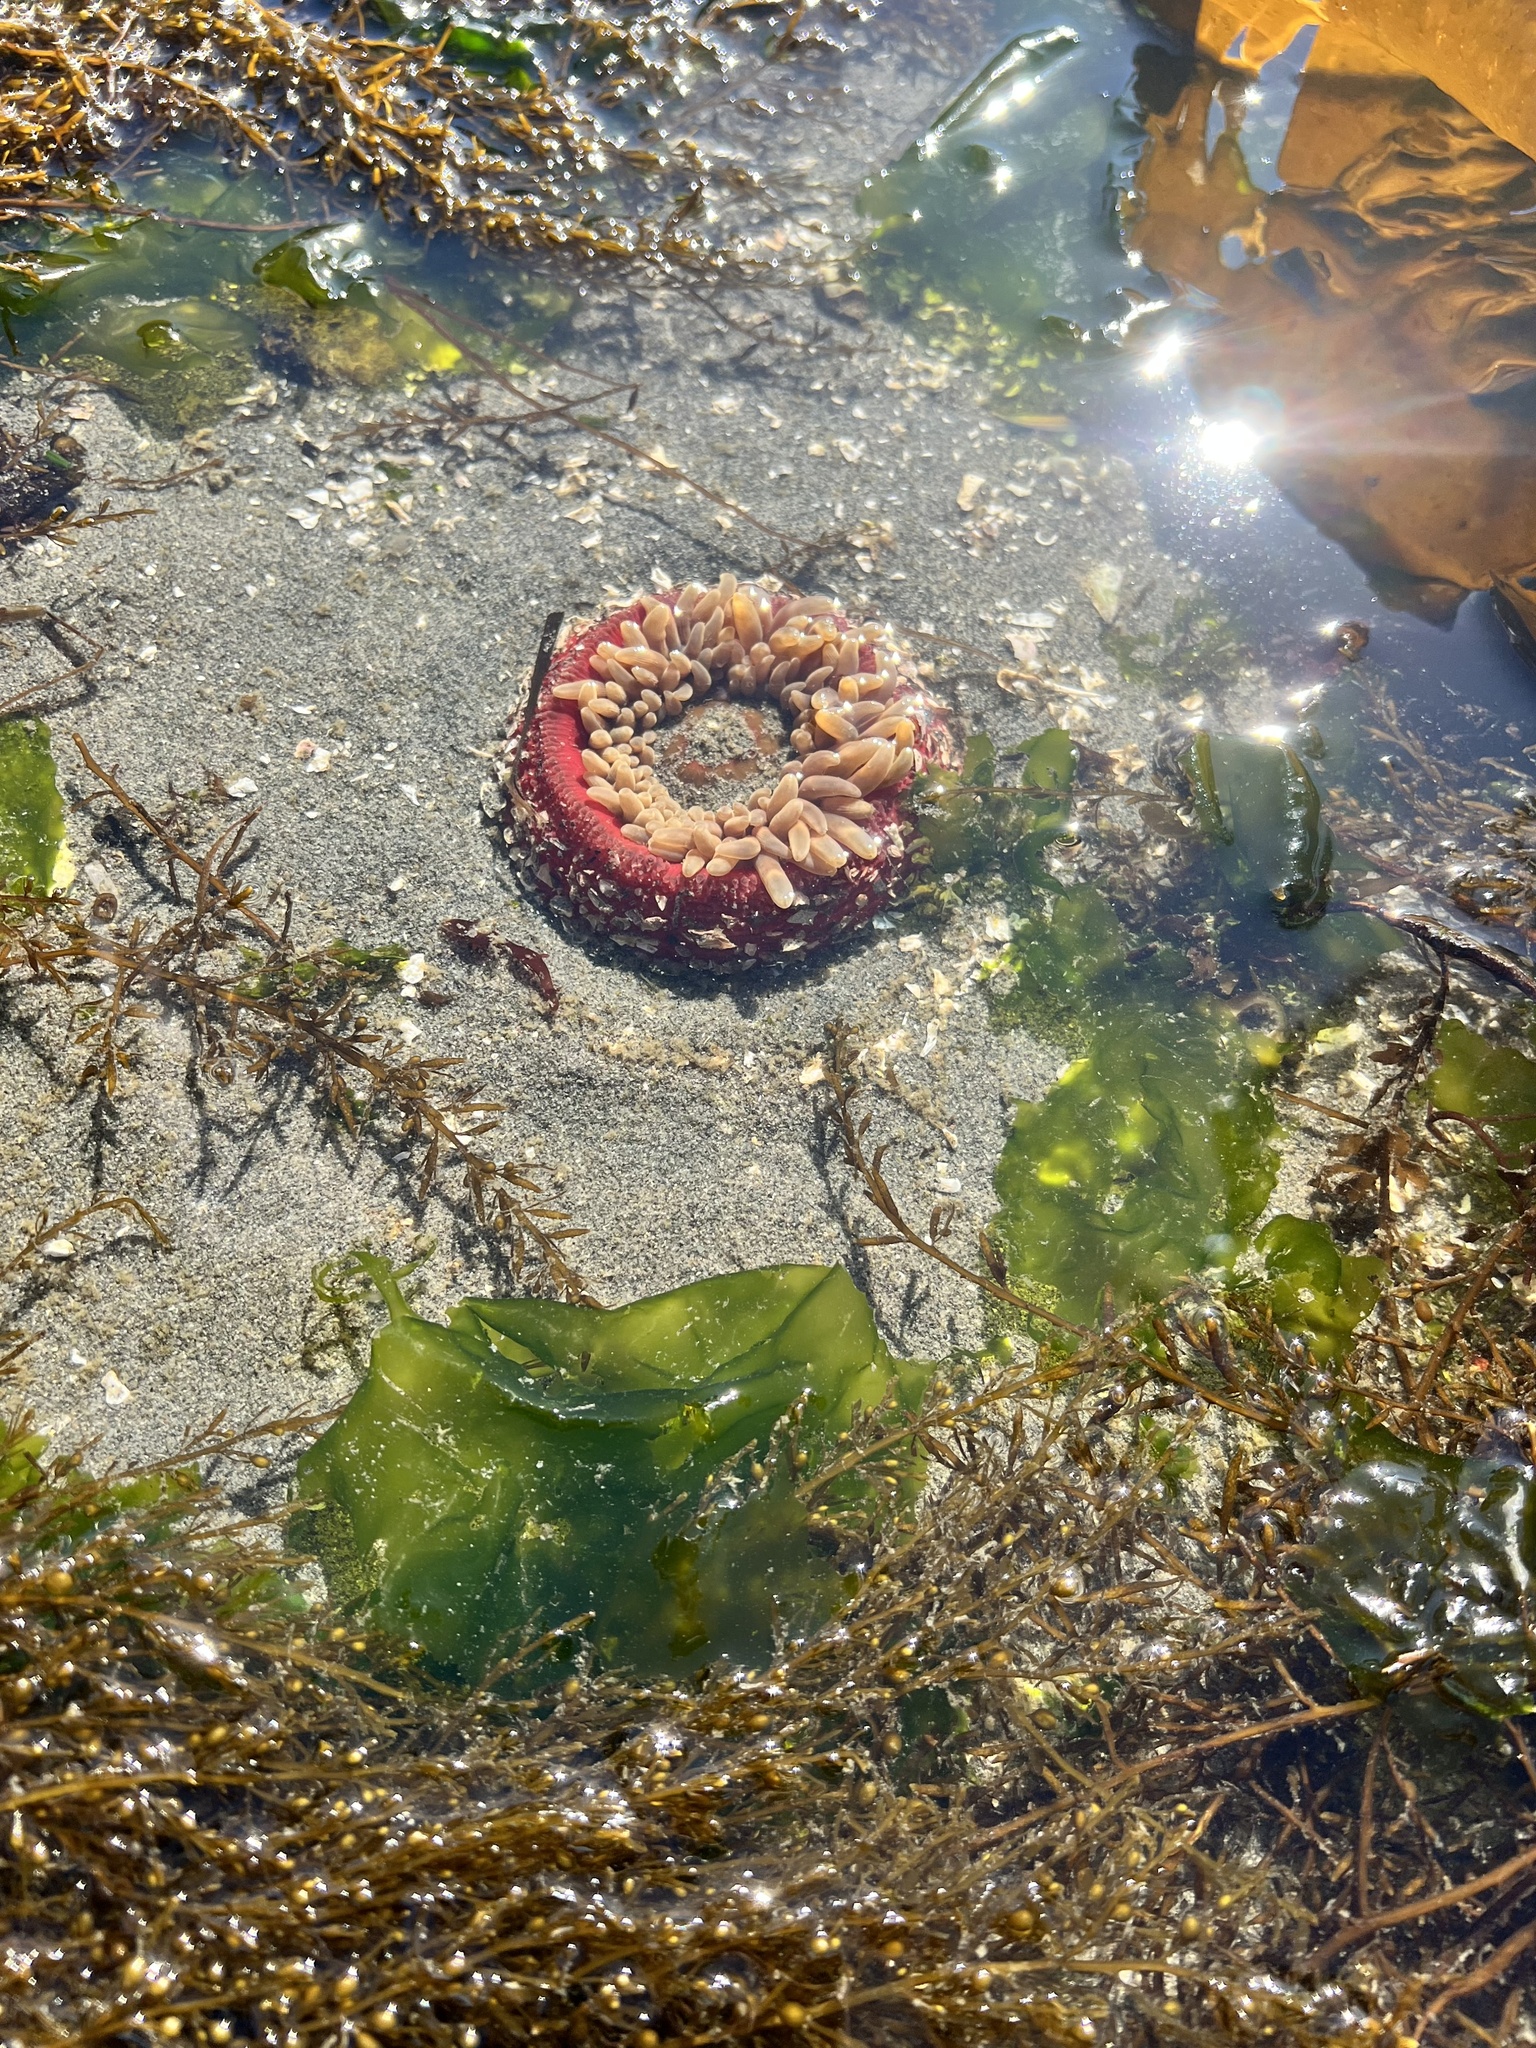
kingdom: Animalia
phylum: Cnidaria
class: Anthozoa
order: Actiniaria
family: Actiniidae
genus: Urticina
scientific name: Urticina clandestina
